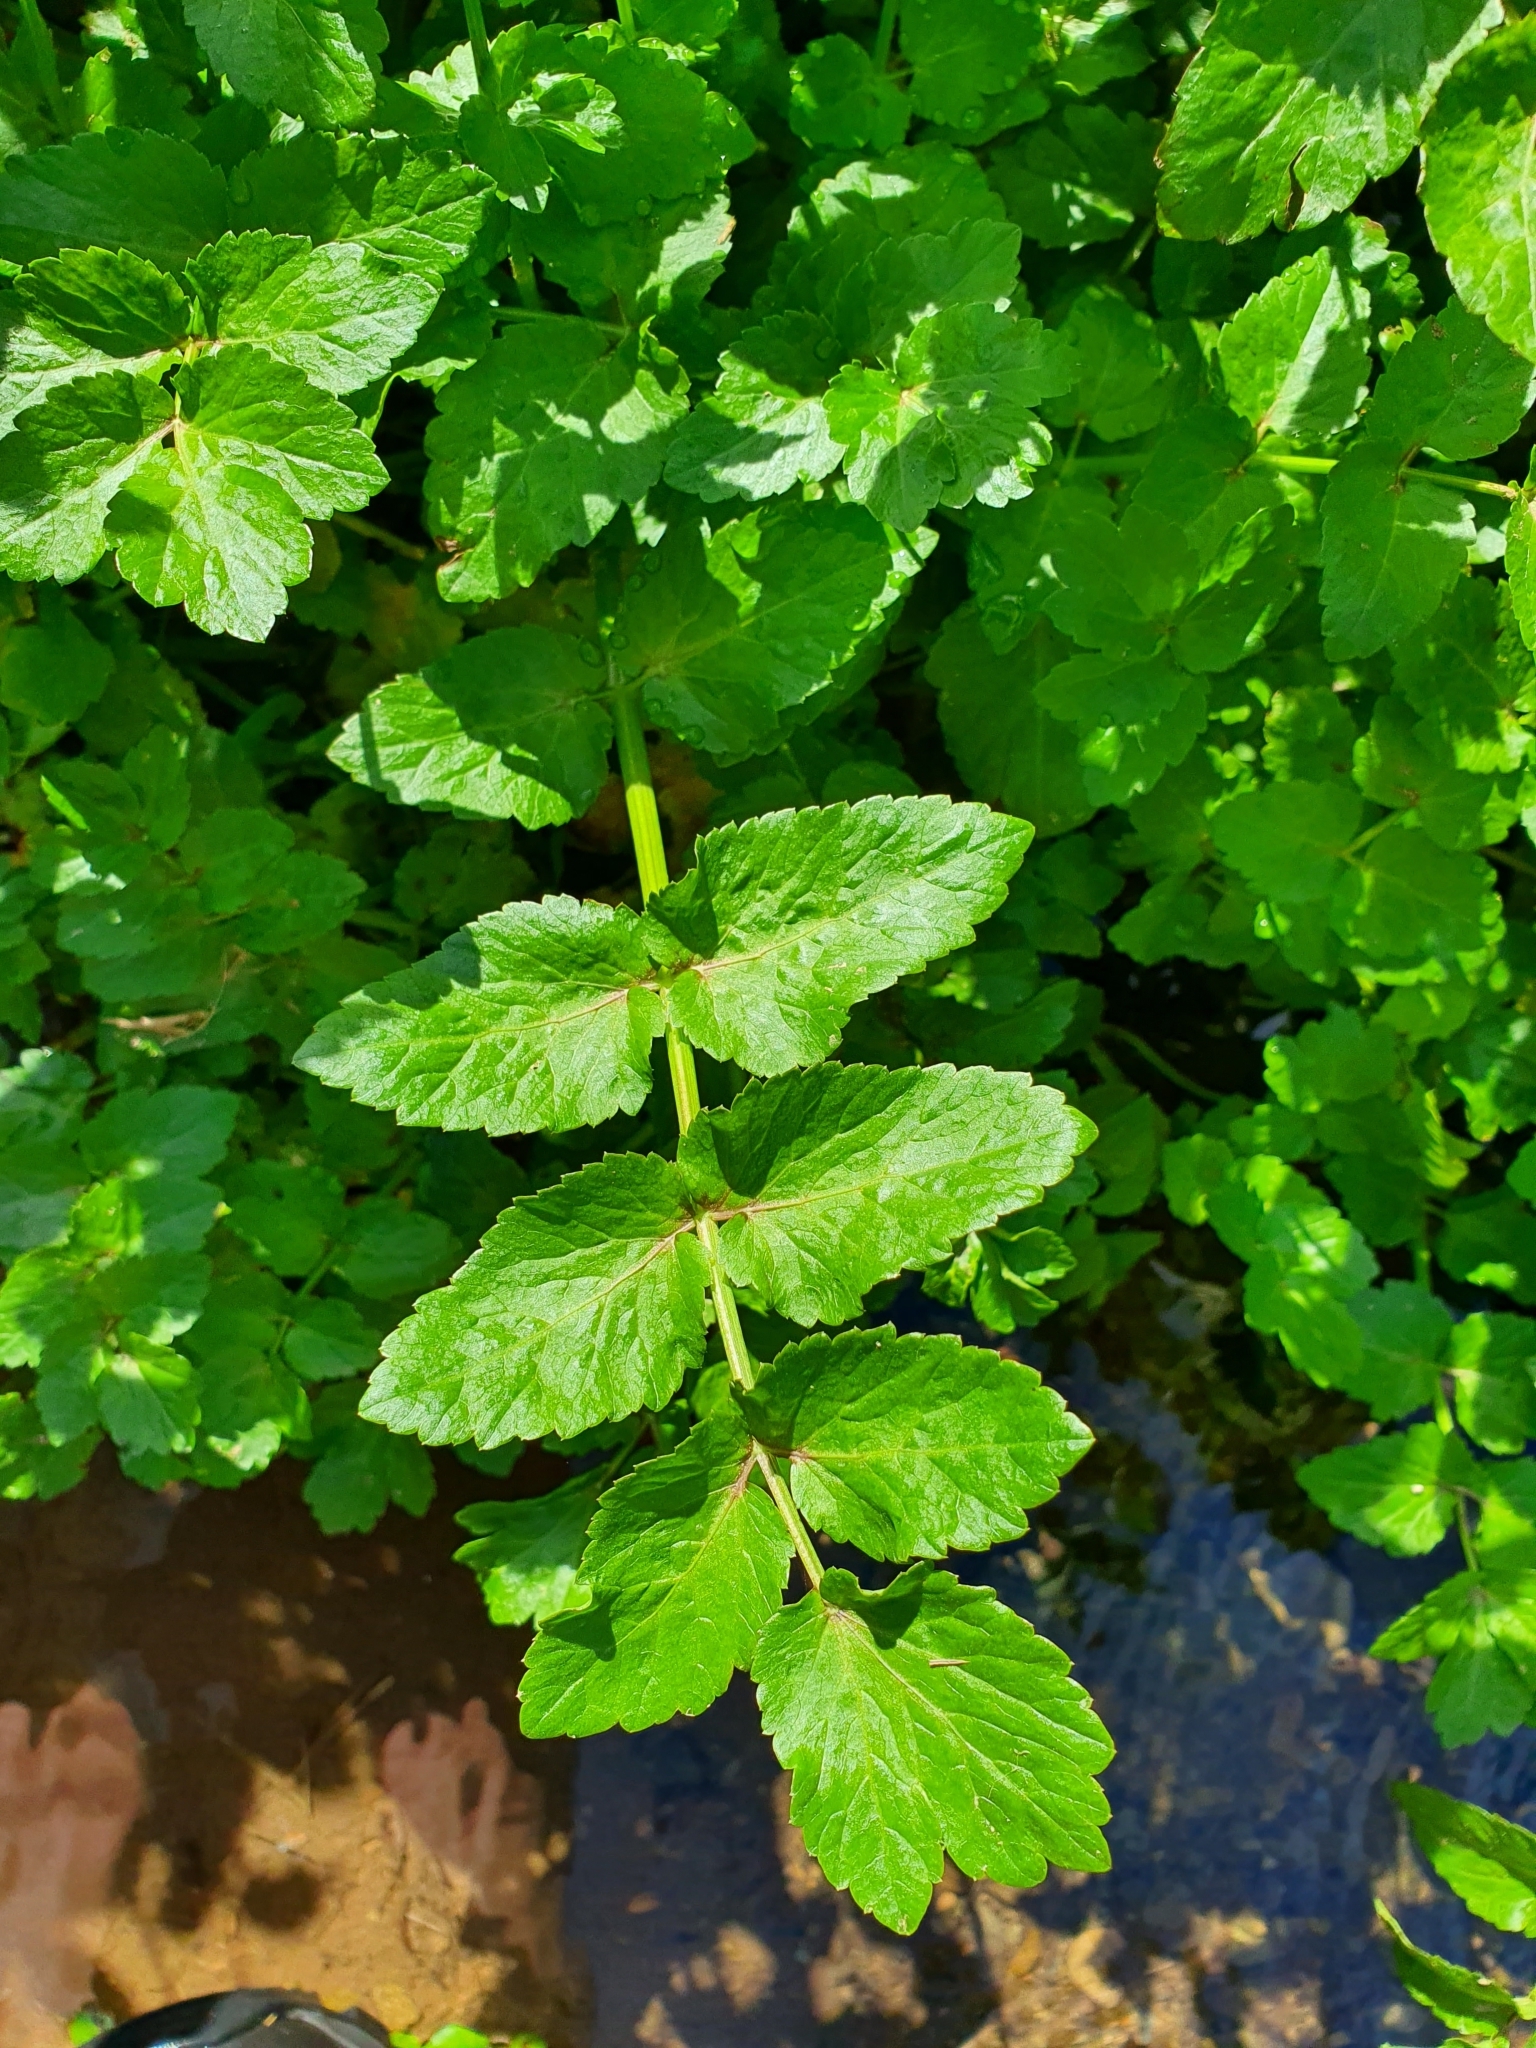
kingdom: Plantae
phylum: Tracheophyta
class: Magnoliopsida
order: Apiales
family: Apiaceae
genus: Helosciadium
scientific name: Helosciadium nodiflorum
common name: Fool's-watercress
